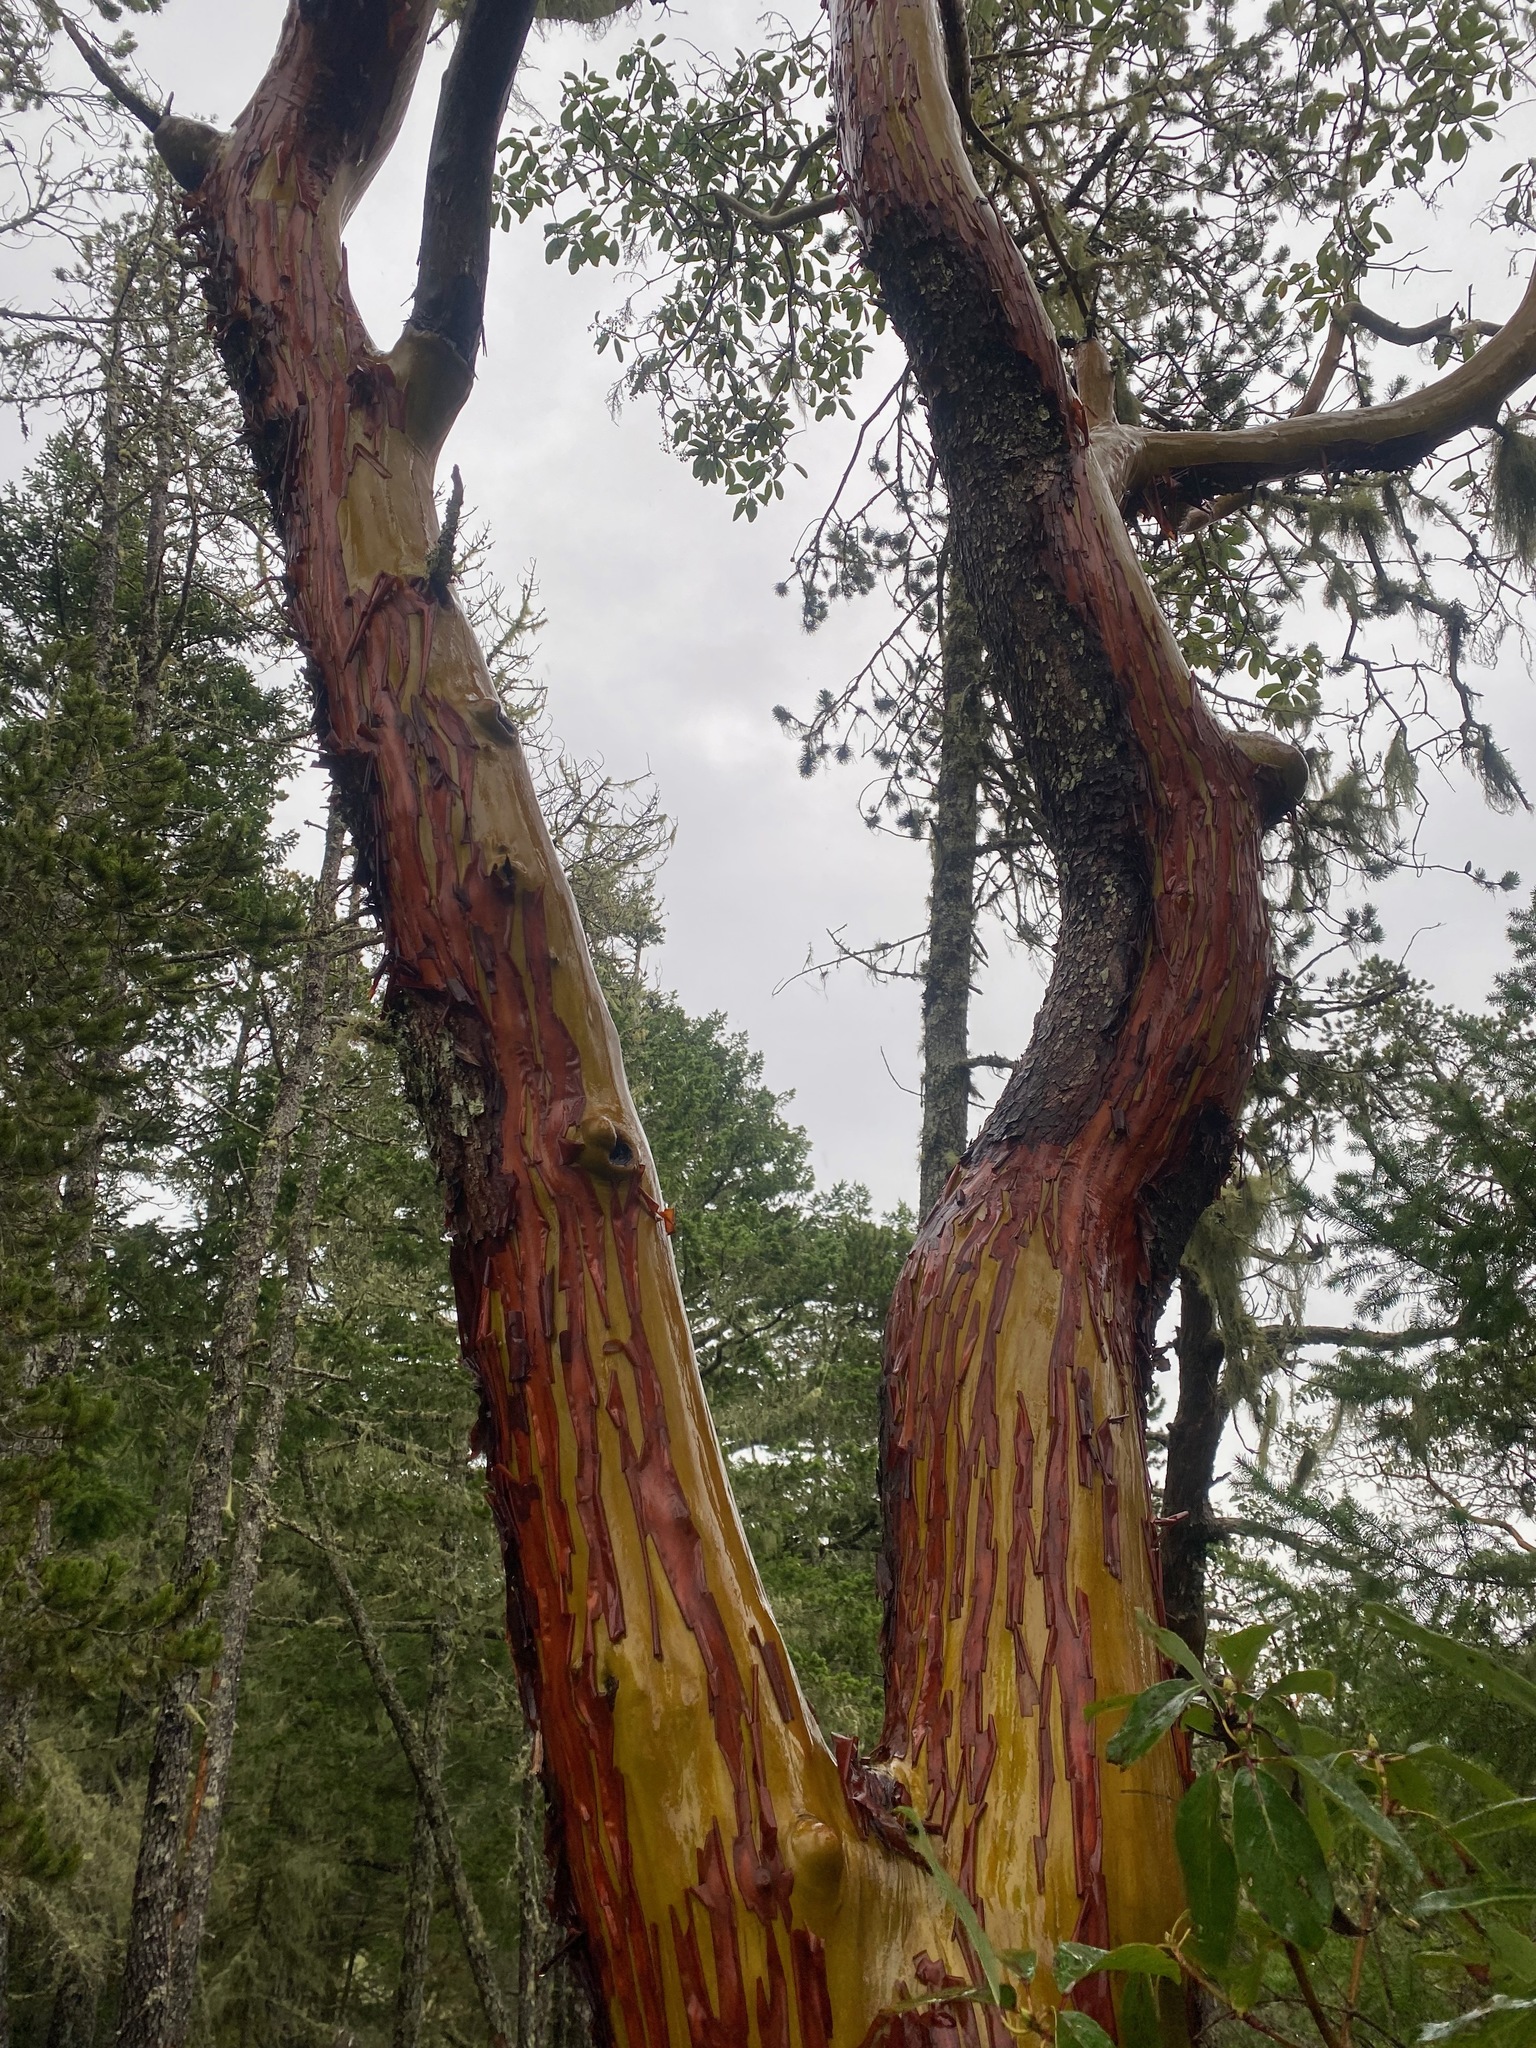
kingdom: Plantae
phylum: Tracheophyta
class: Magnoliopsida
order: Ericales
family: Ericaceae
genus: Arbutus
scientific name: Arbutus menziesii
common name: Pacific madrone
